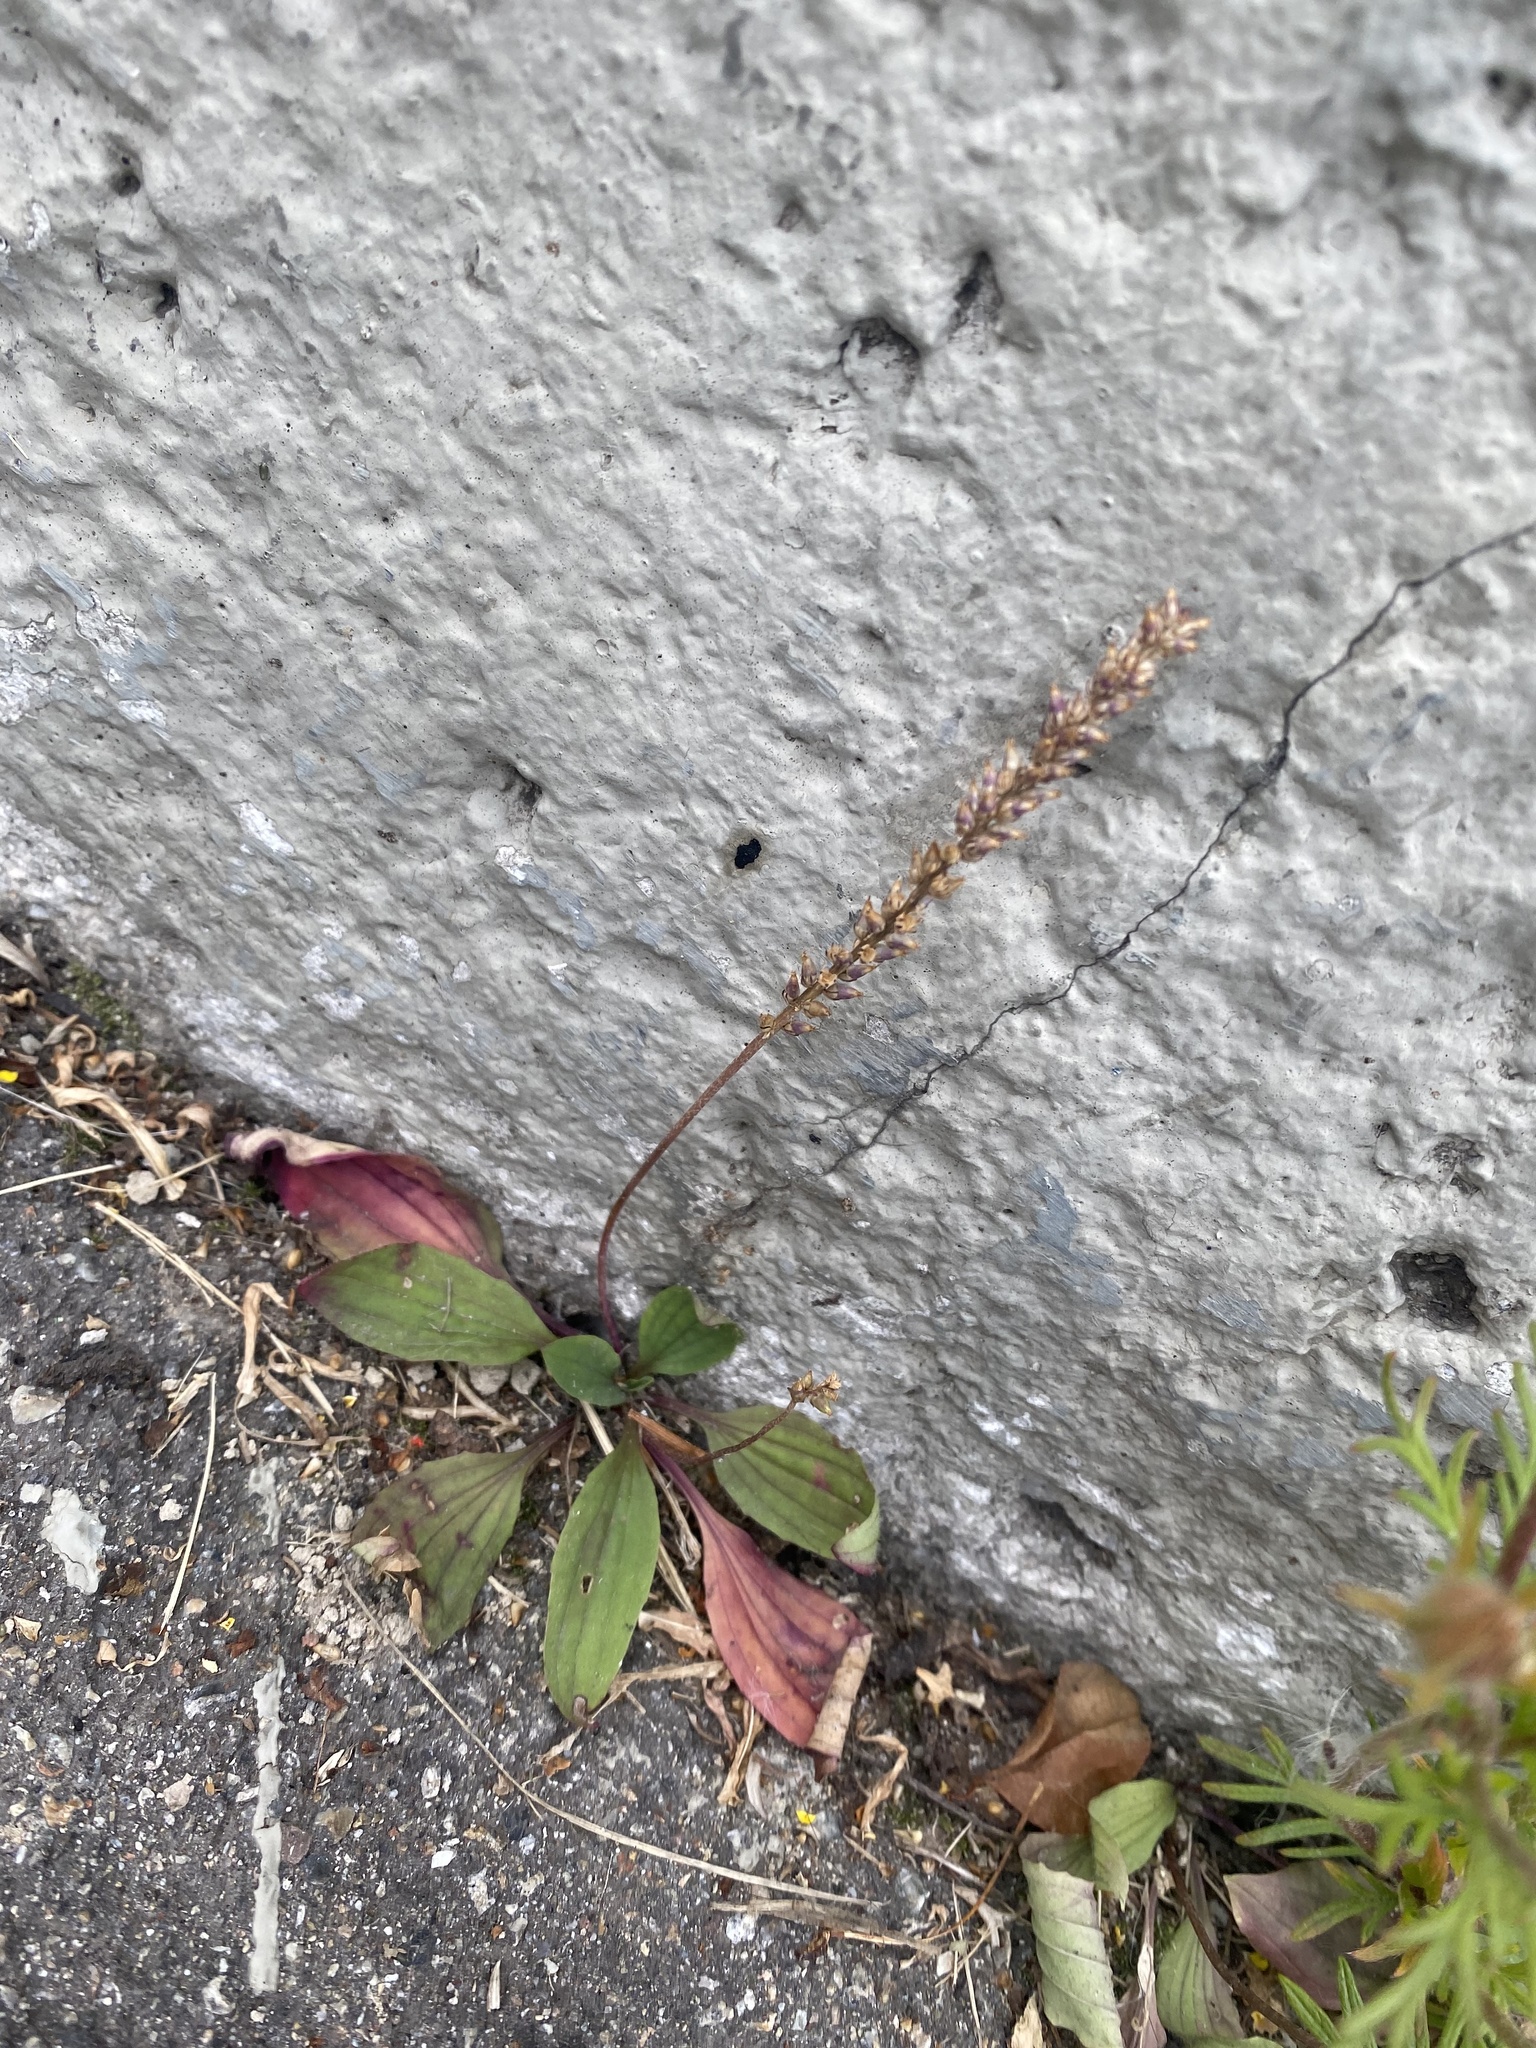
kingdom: Plantae
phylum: Tracheophyta
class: Magnoliopsida
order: Lamiales
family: Plantaginaceae
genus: Plantago
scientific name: Plantago depressa
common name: Depressed plantain
